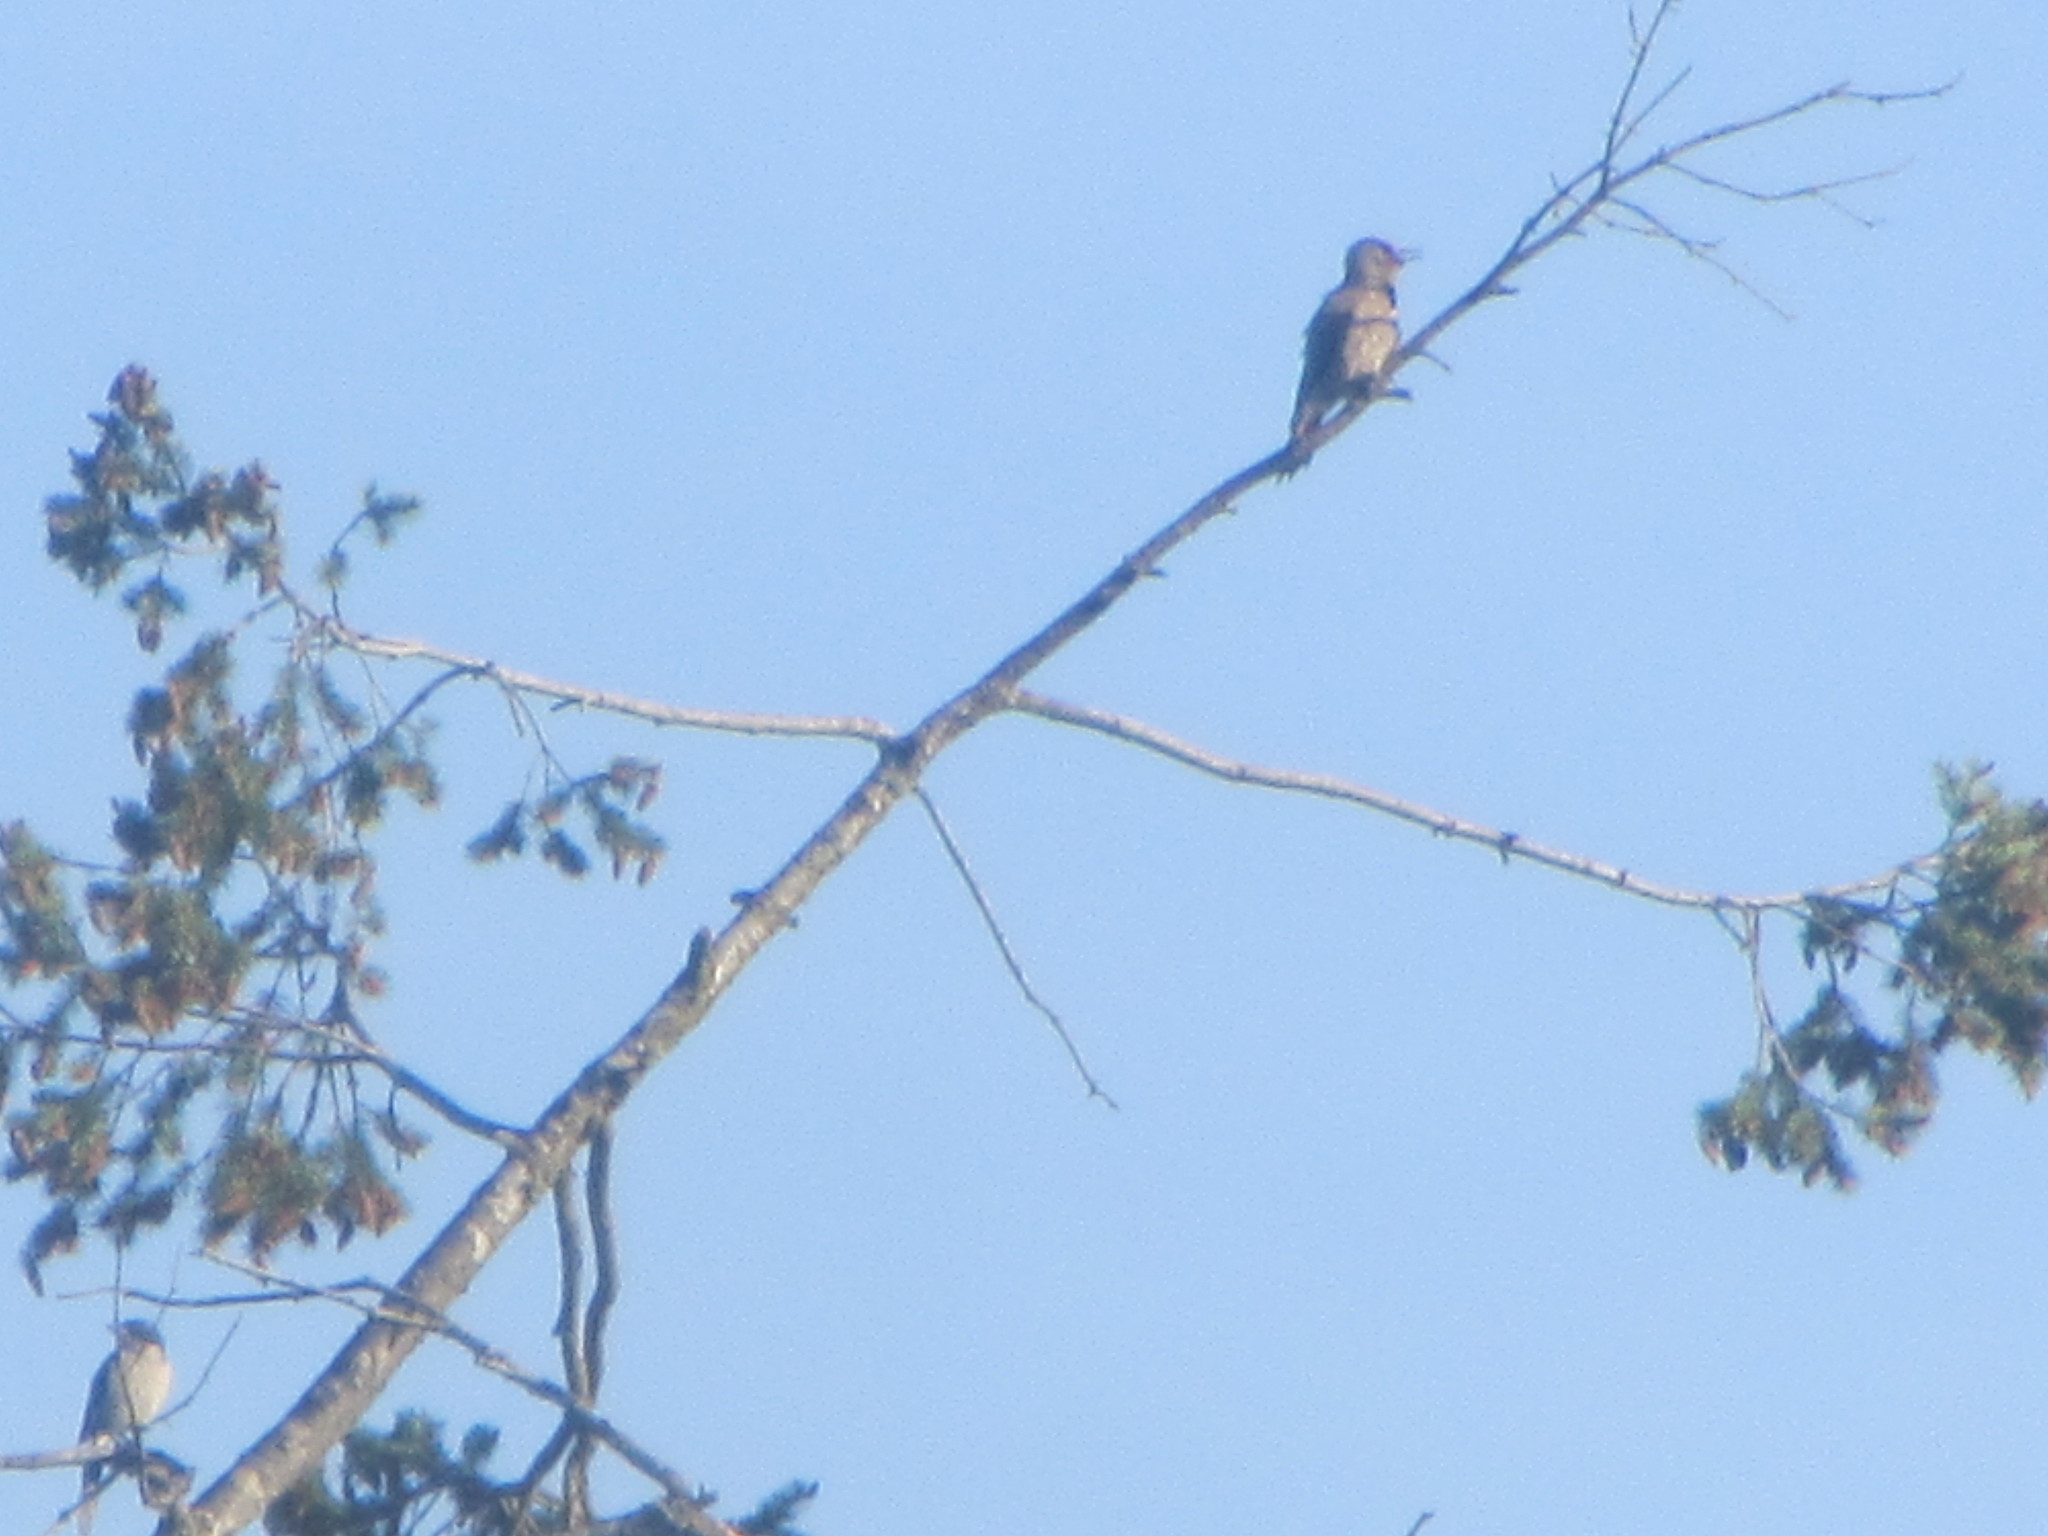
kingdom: Animalia
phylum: Chordata
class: Aves
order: Piciformes
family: Picidae
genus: Colaptes
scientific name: Colaptes auratus
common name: Northern flicker
